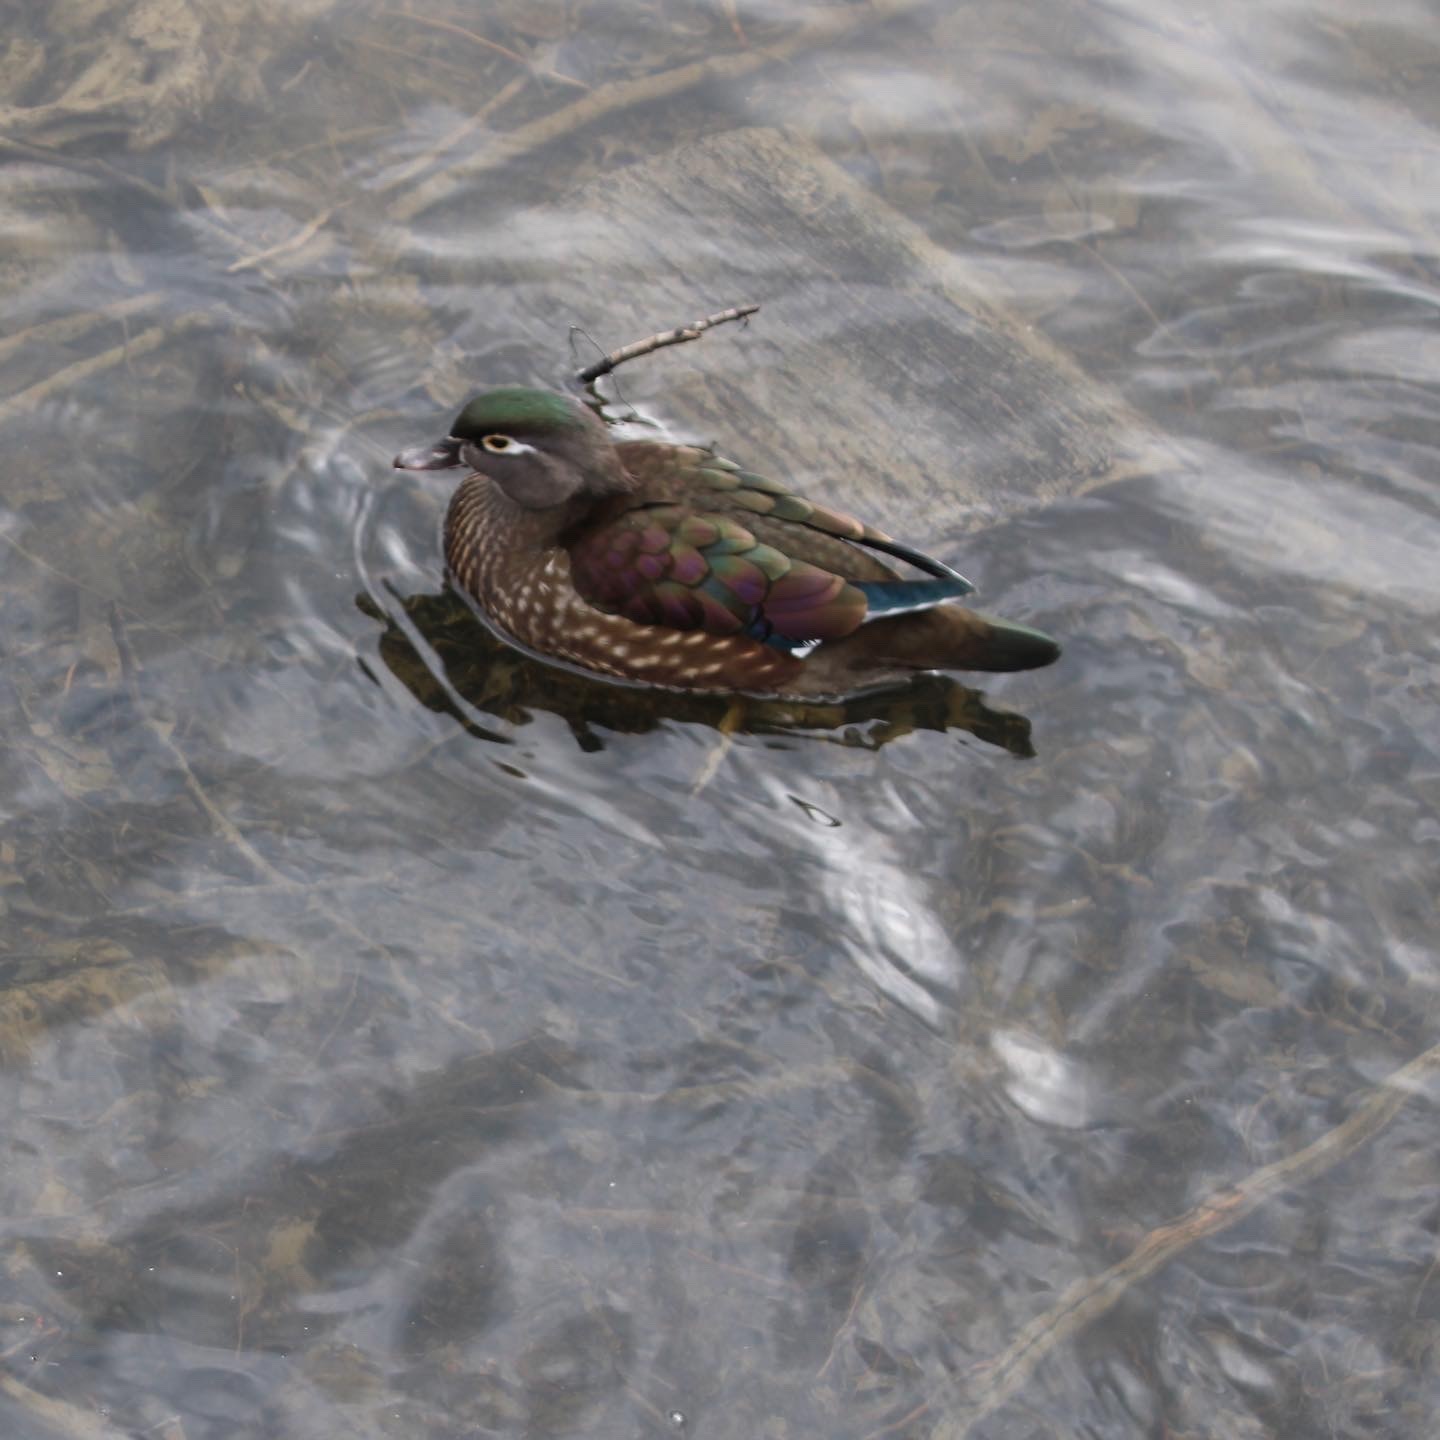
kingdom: Animalia
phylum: Chordata
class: Aves
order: Anseriformes
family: Anatidae
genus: Aix
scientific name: Aix sponsa
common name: Wood duck
